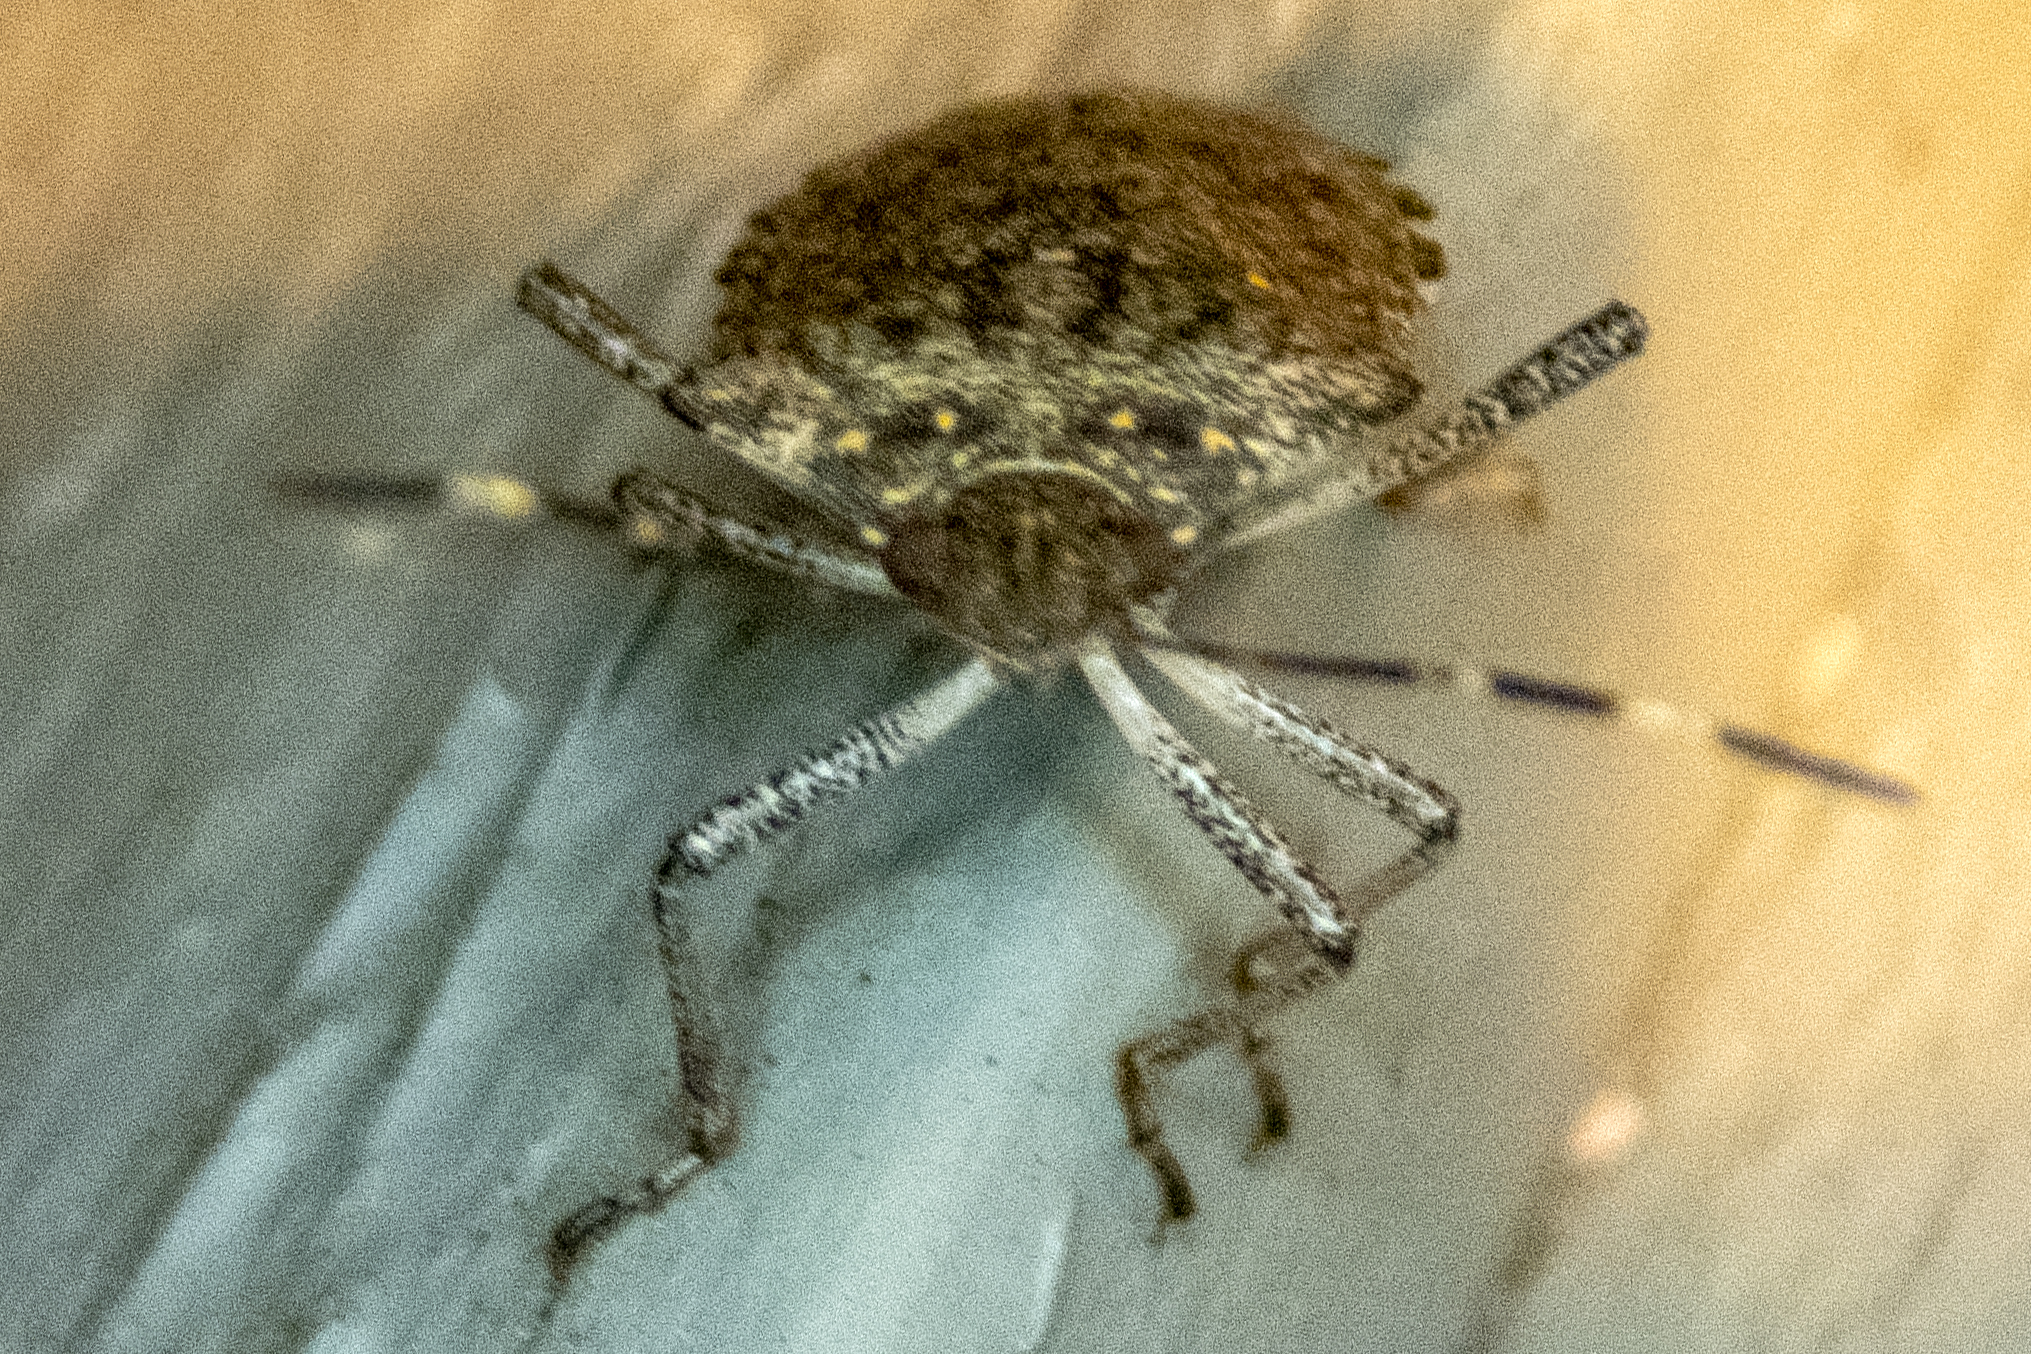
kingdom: Animalia
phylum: Arthropoda
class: Insecta
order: Hemiptera
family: Pentatomidae
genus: Halyomorpha
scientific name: Halyomorpha halys
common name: Brown marmorated stink bug
